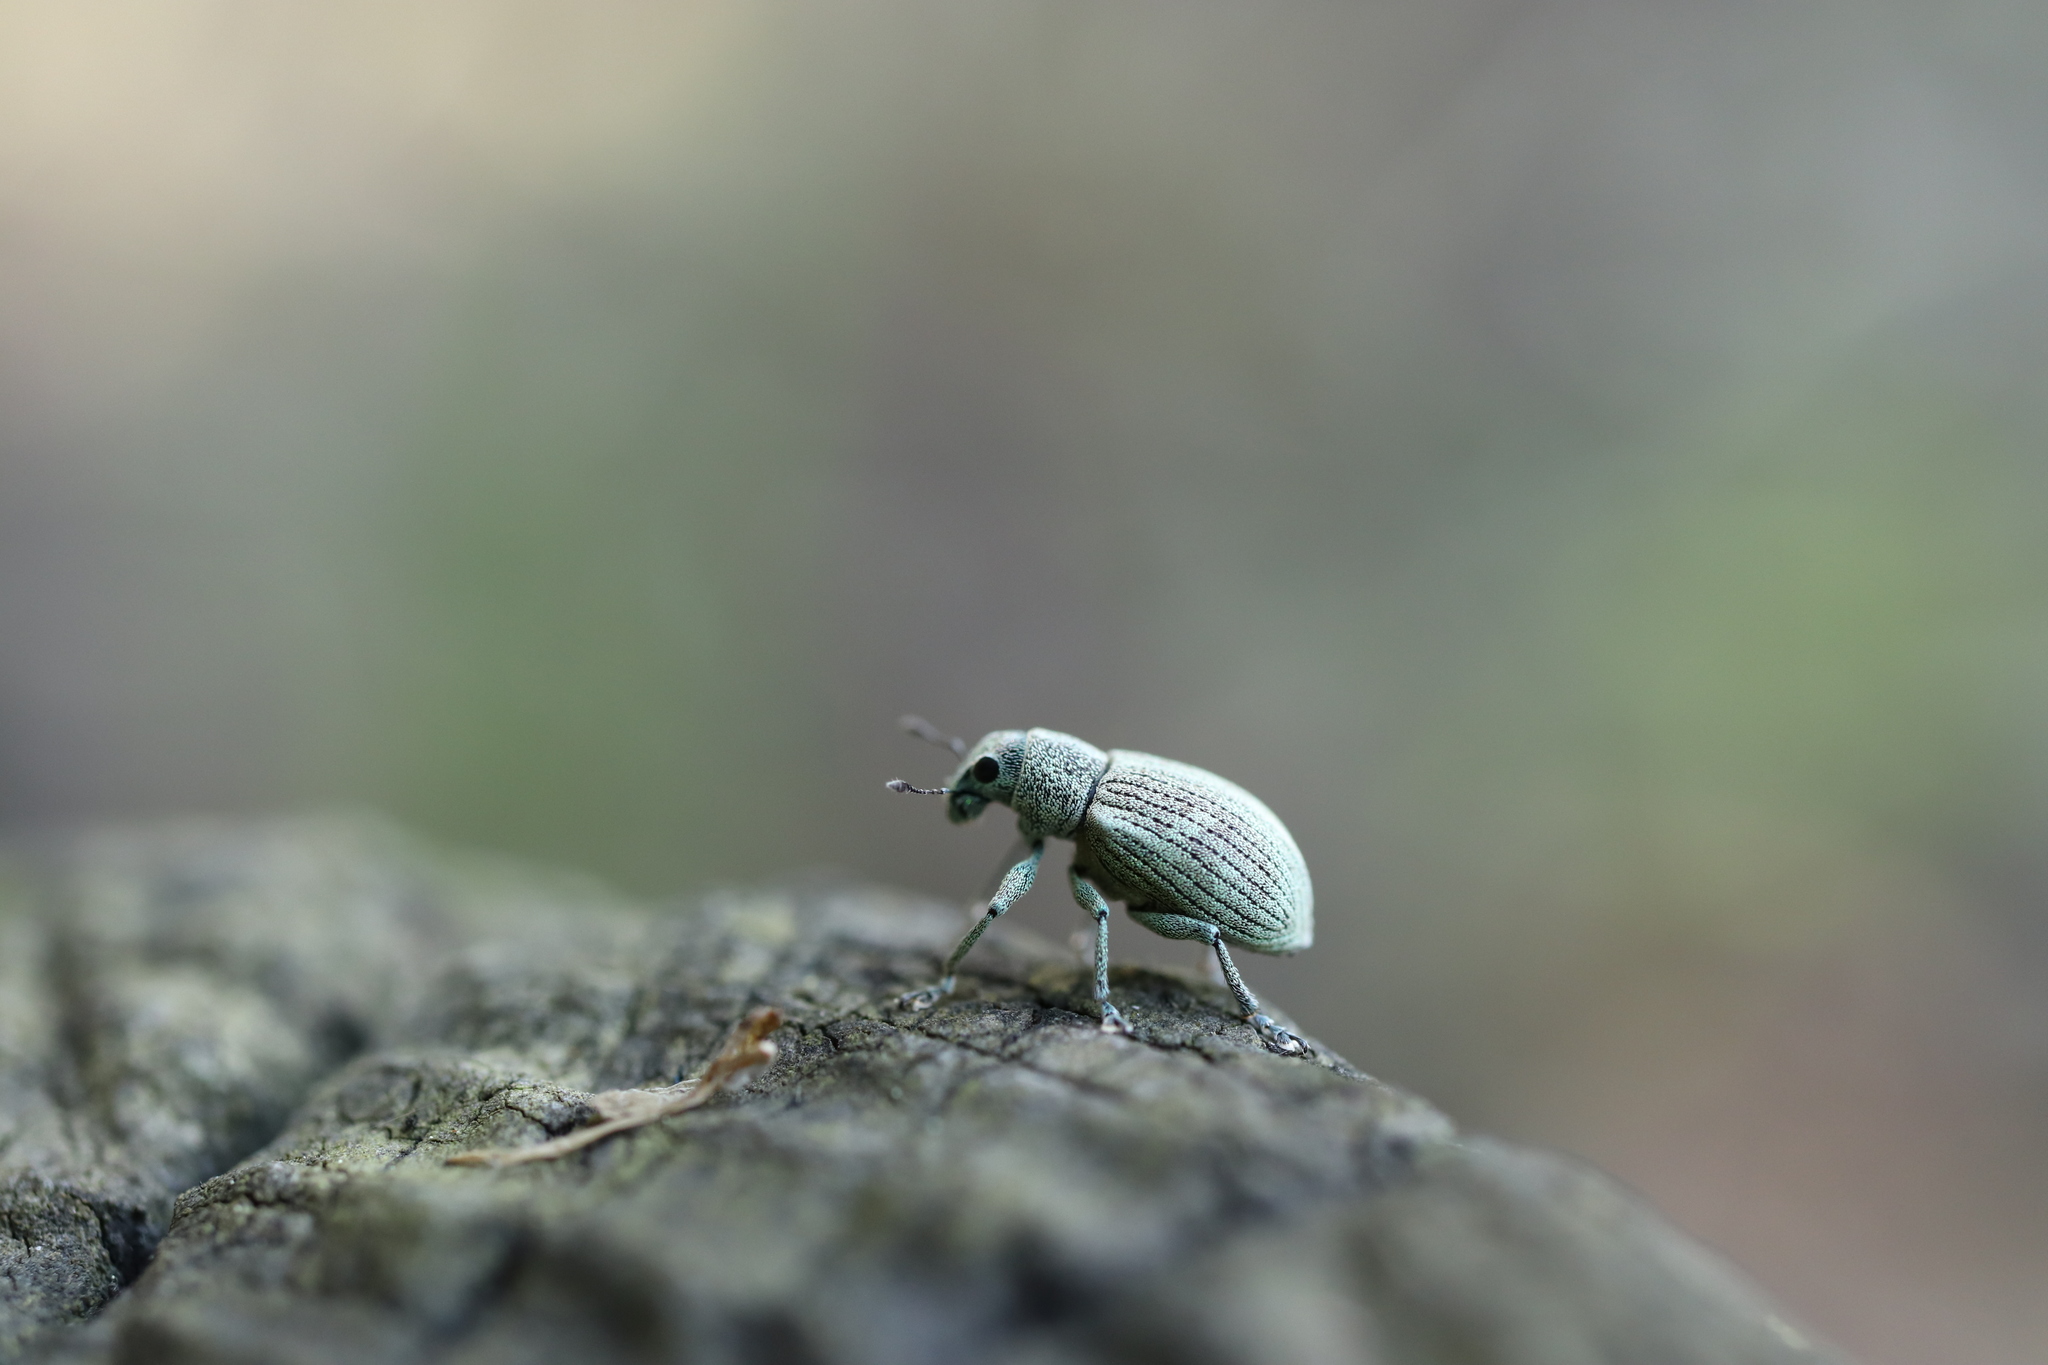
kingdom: Animalia
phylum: Arthropoda
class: Insecta
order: Coleoptera
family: Curculionidae
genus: Eugnathus
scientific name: Eugnathus distinctus
